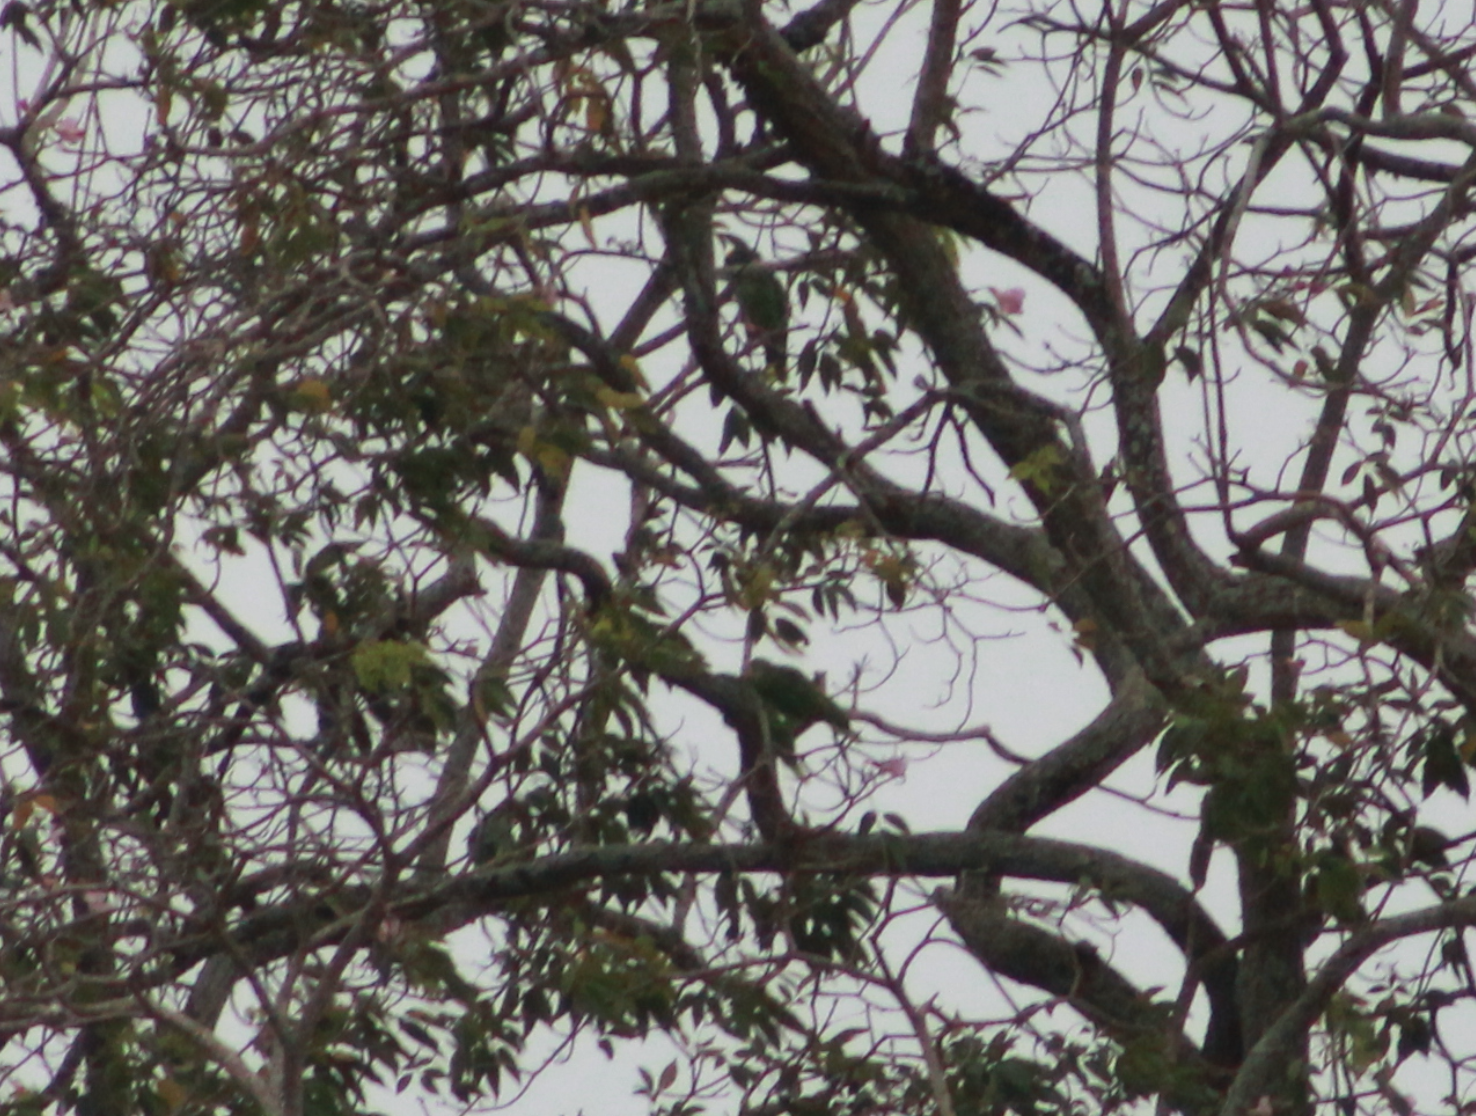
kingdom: Animalia
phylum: Chordata
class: Aves
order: Psittaciformes
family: Psittacidae
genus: Amazona
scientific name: Amazona amazonica
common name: Orange-winged amazon
